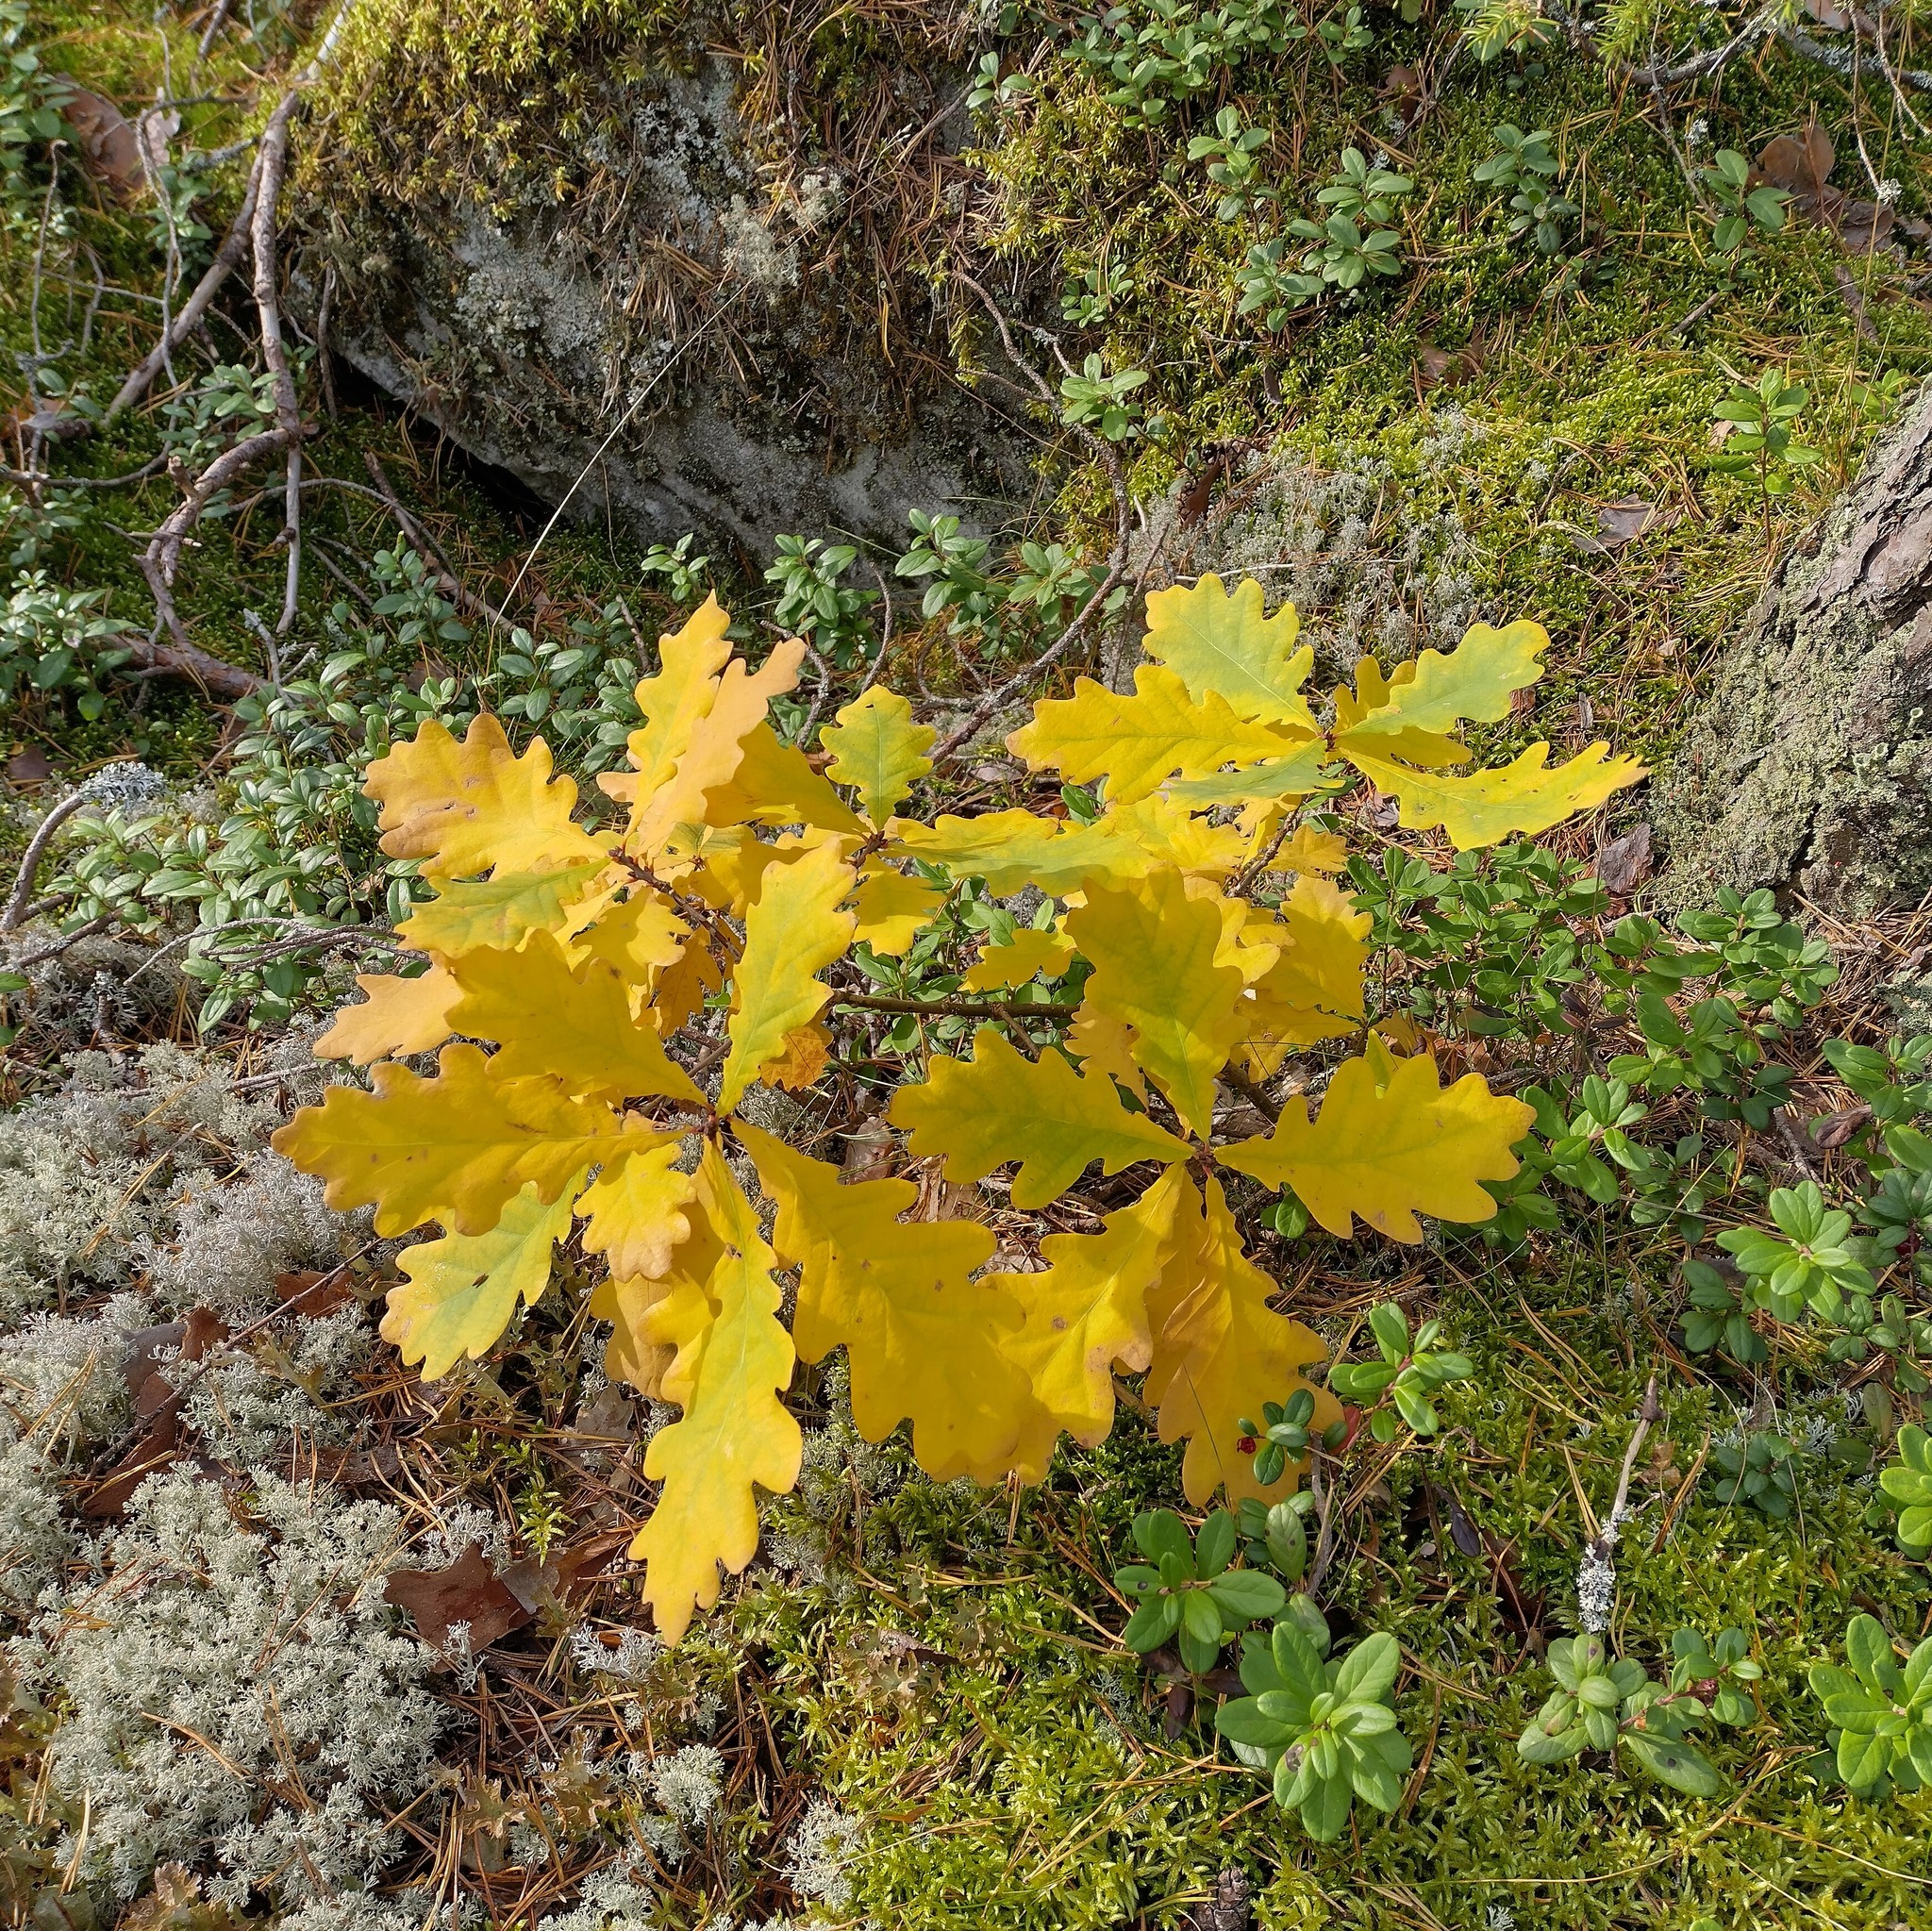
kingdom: Plantae
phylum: Tracheophyta
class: Magnoliopsida
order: Fagales
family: Fagaceae
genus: Quercus
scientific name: Quercus robur
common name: Pedunculate oak
